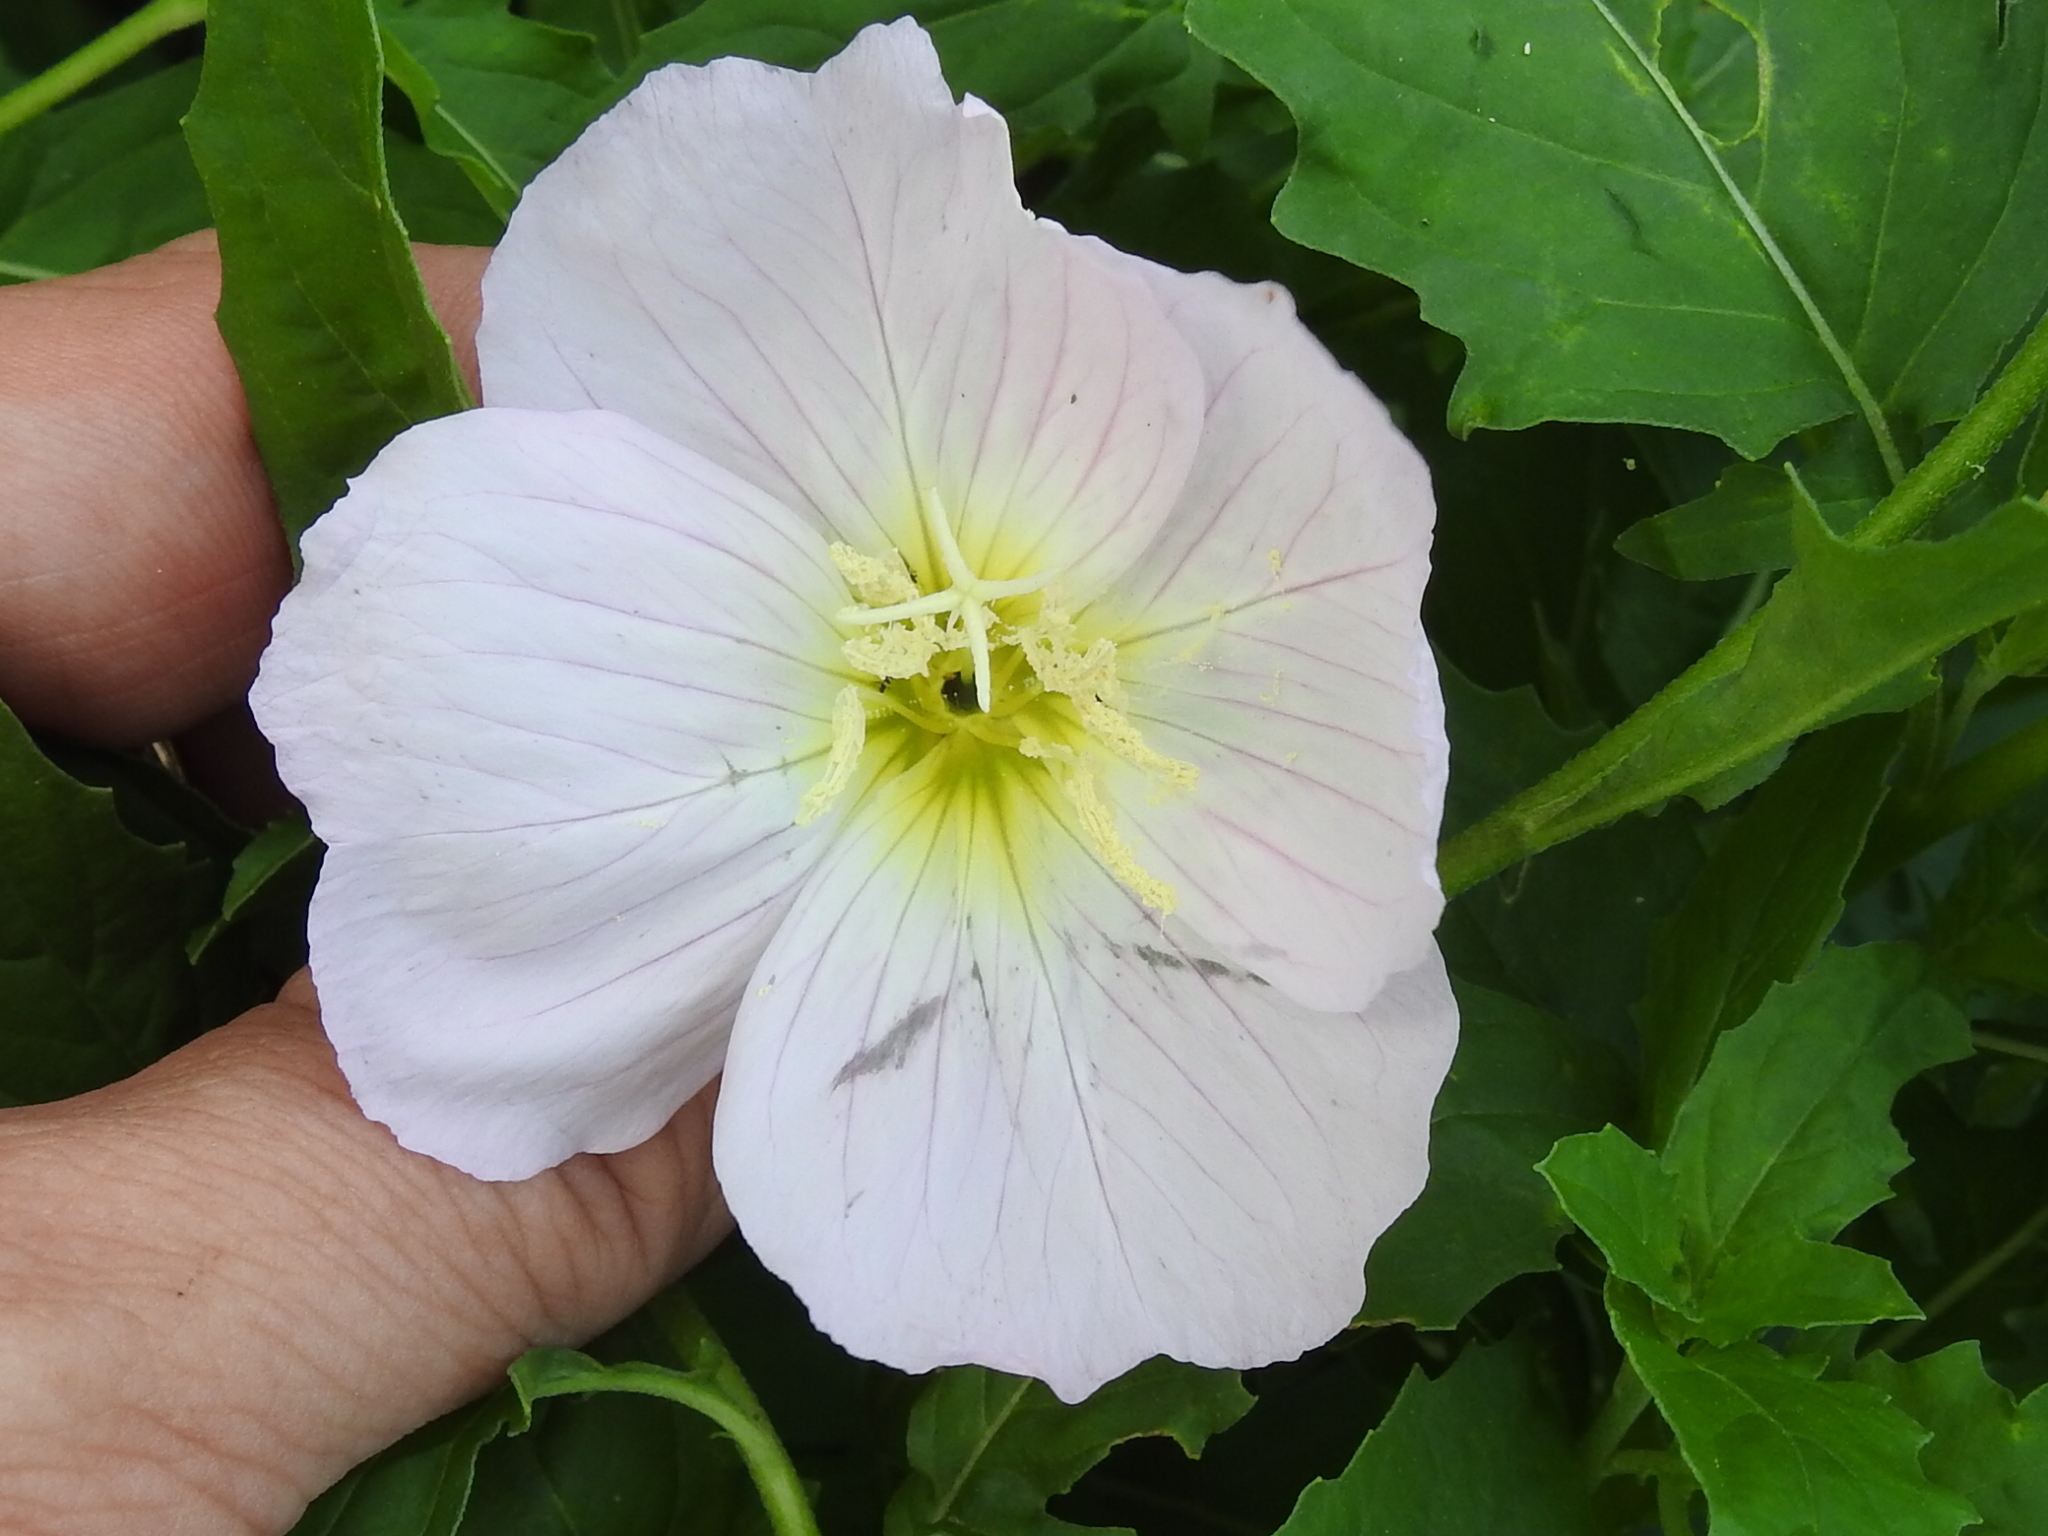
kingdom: Plantae
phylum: Tracheophyta
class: Magnoliopsida
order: Myrtales
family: Onagraceae
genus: Oenothera
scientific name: Oenothera speciosa
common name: White evening-primrose
